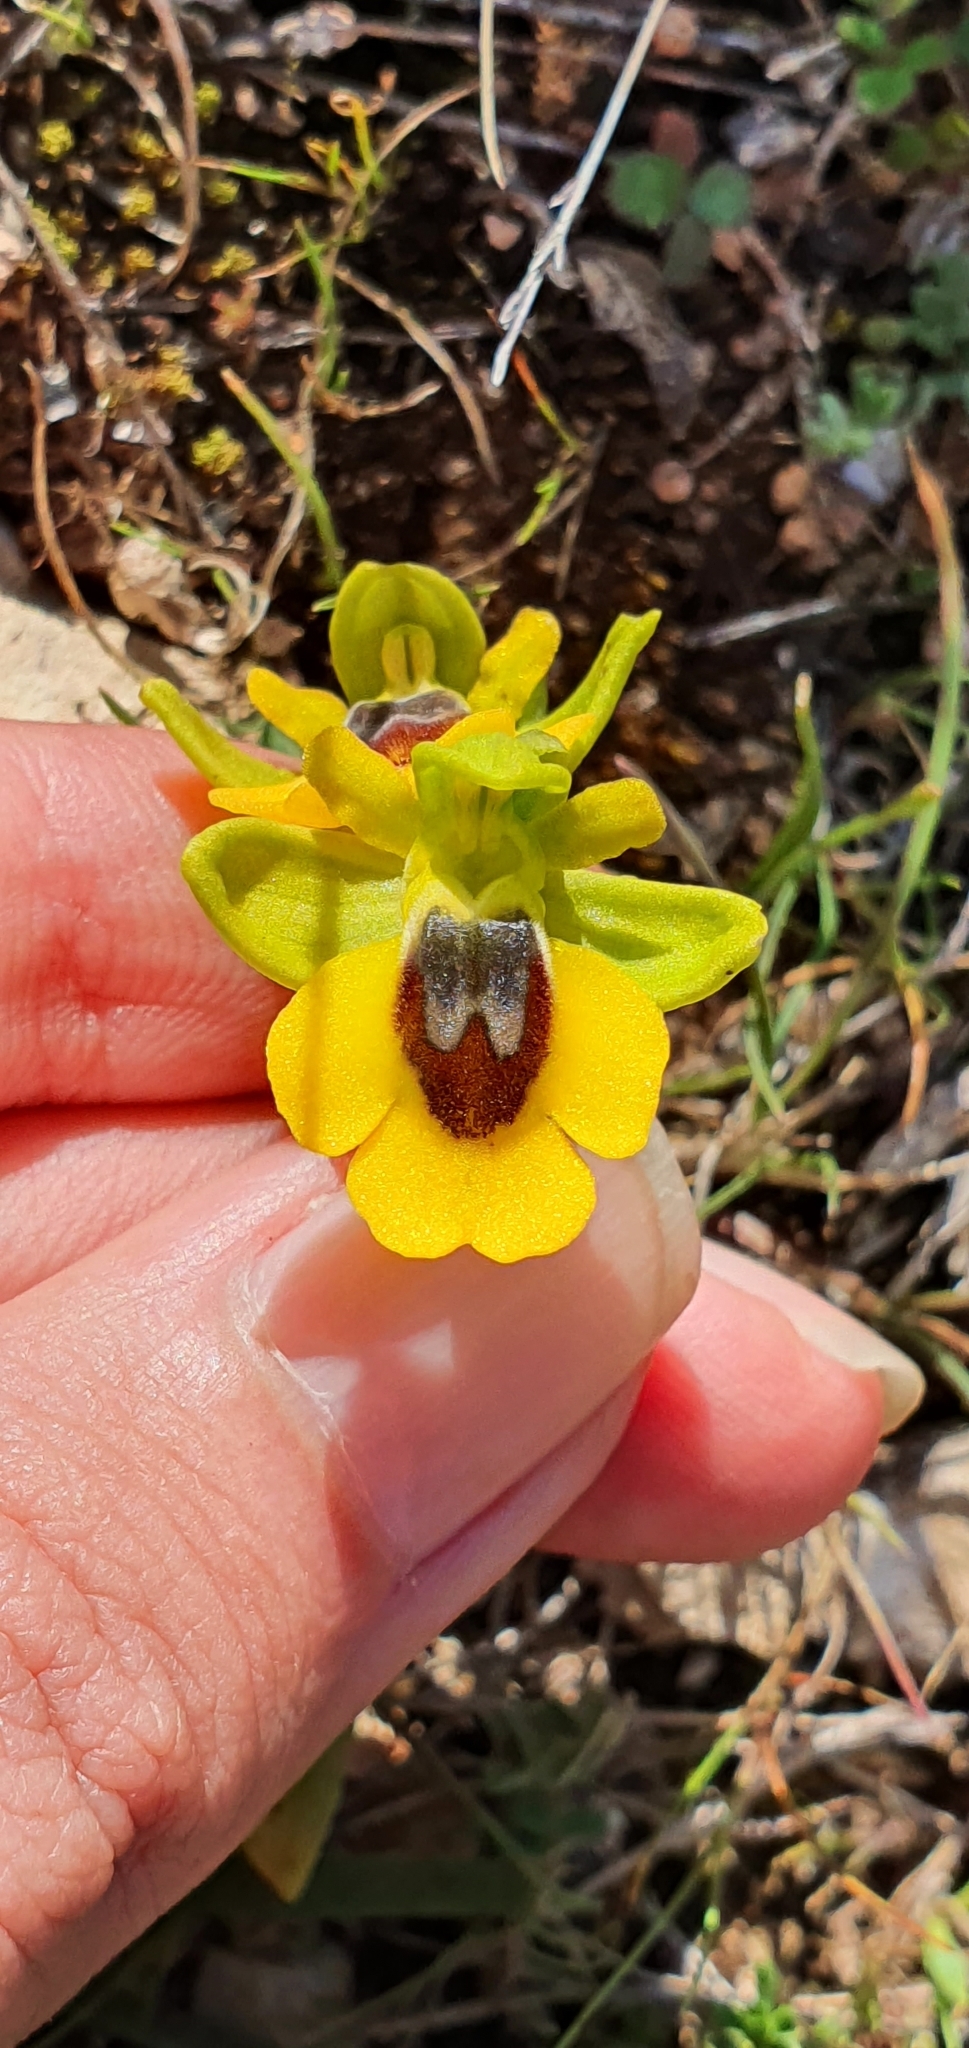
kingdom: Plantae
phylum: Tracheophyta
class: Liliopsida
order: Asparagales
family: Orchidaceae
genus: Ophrys
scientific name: Ophrys lutea
